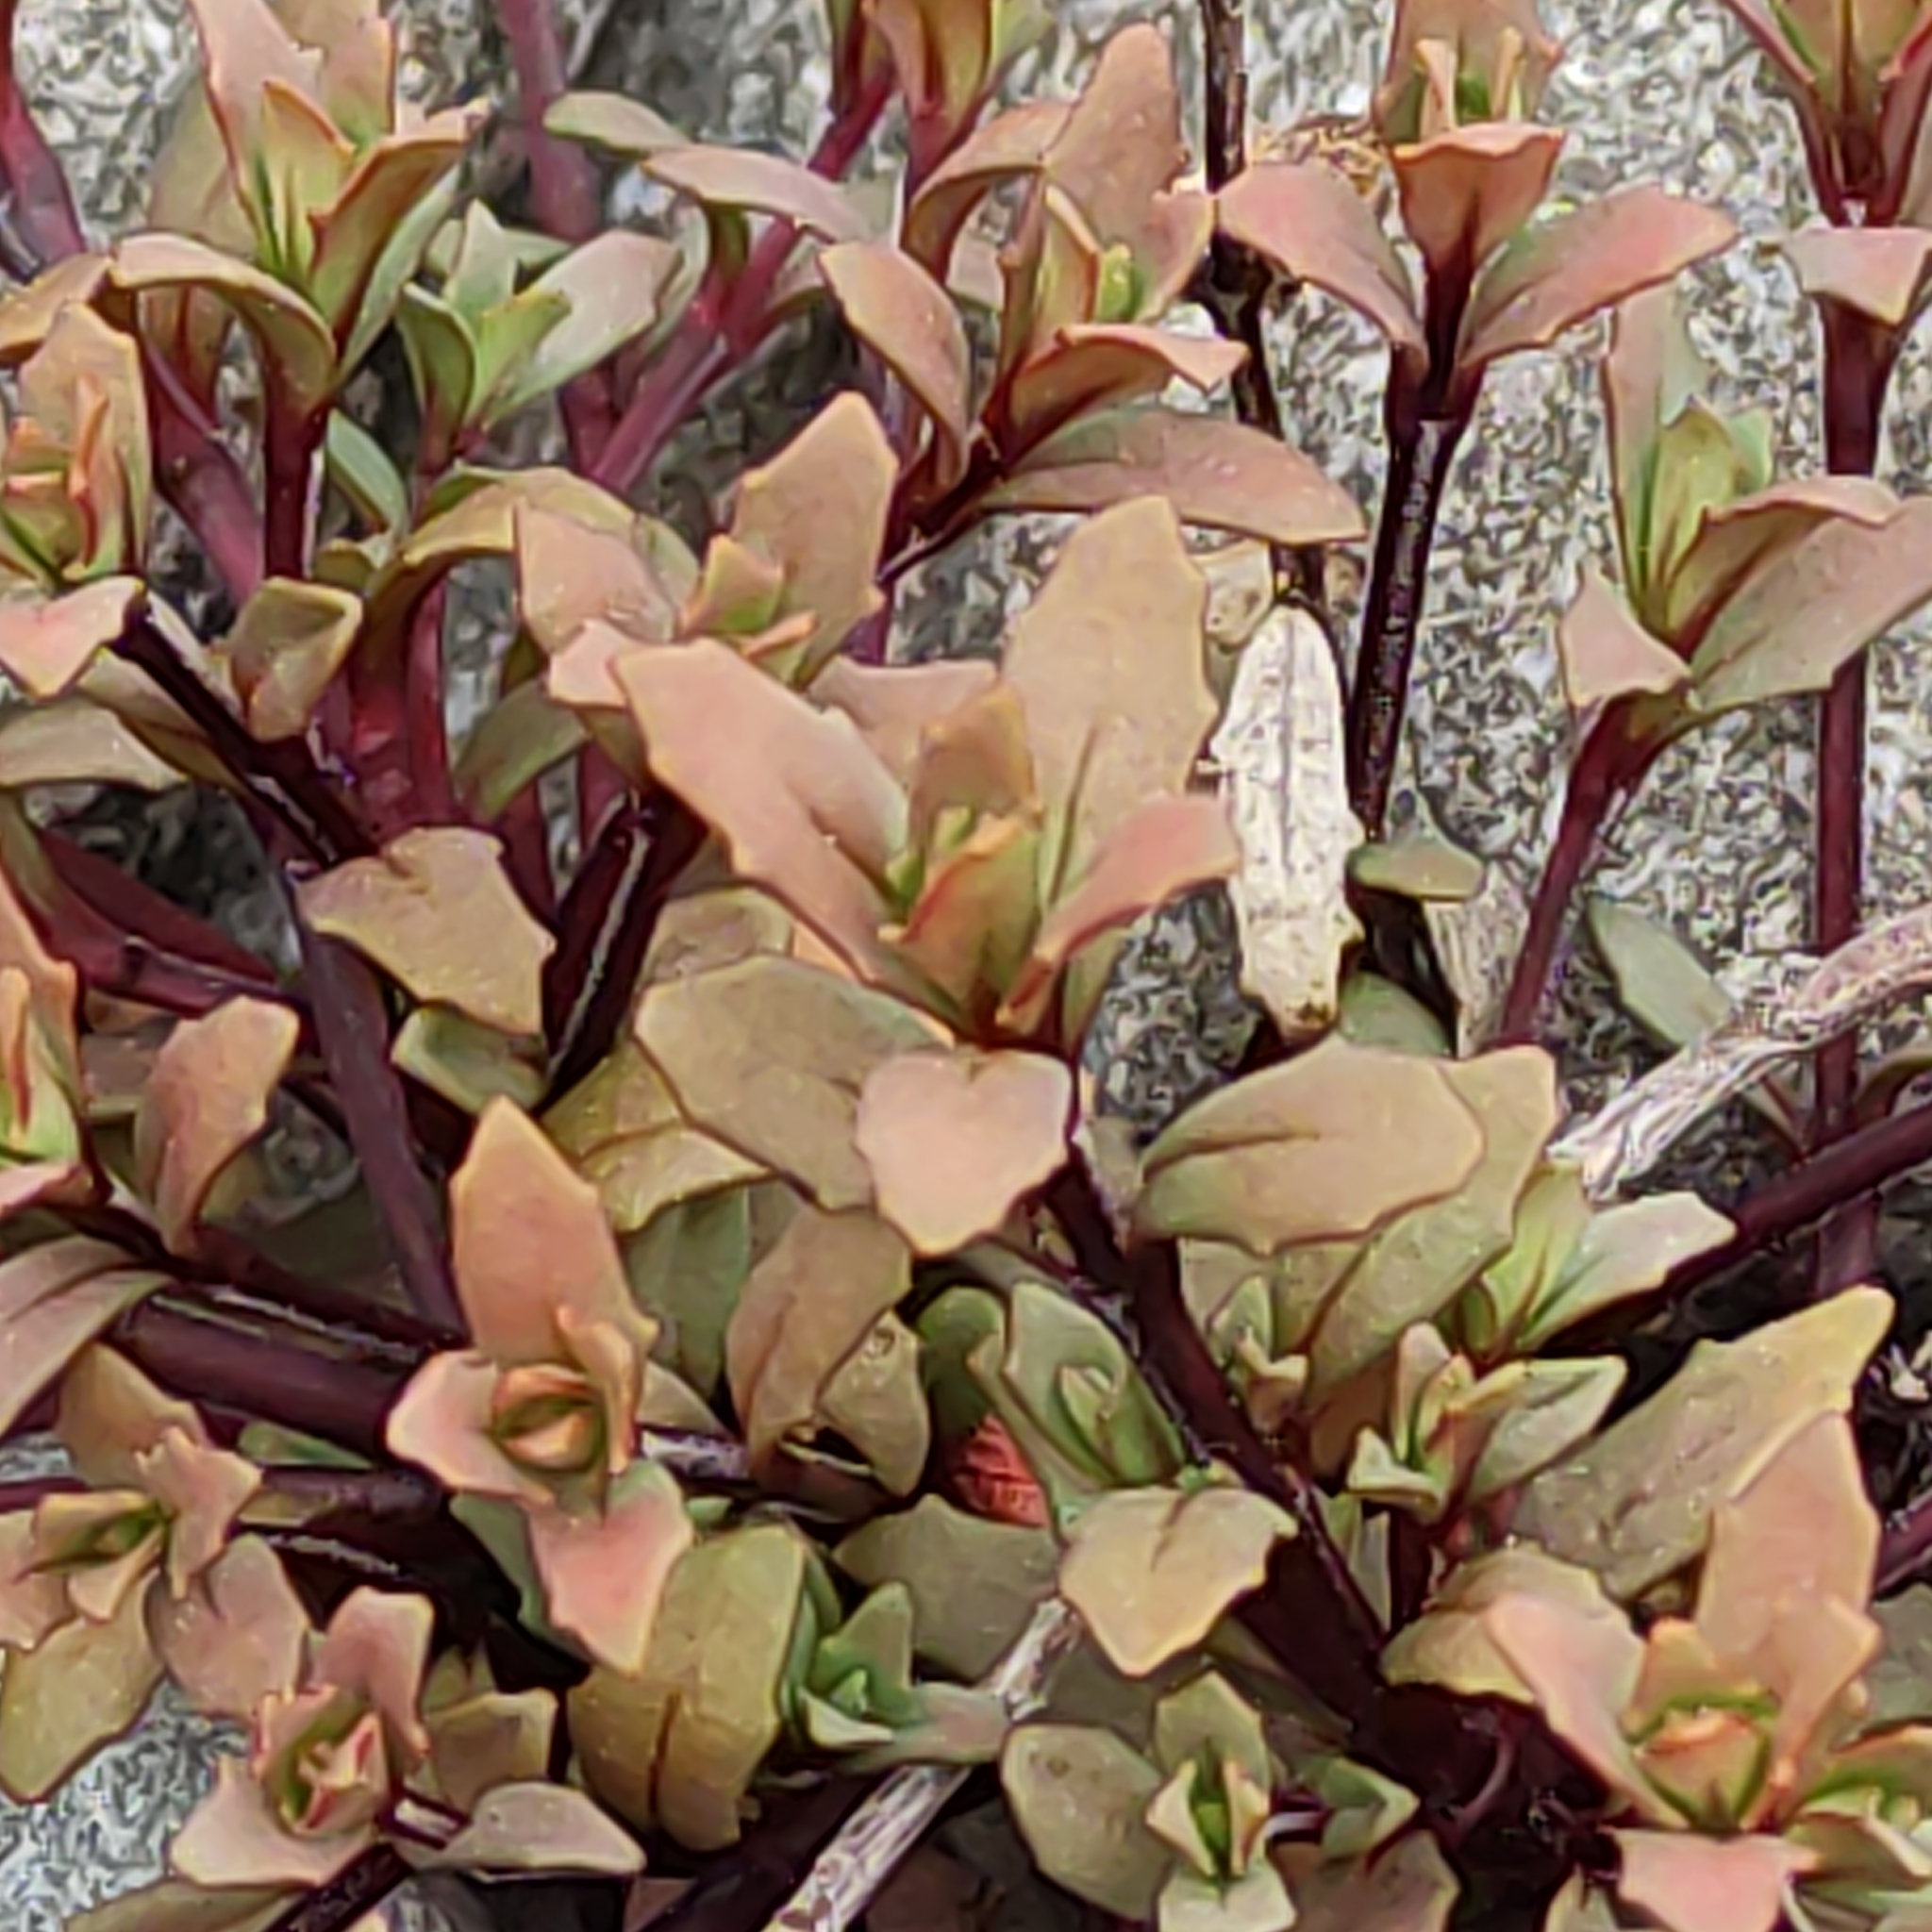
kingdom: Plantae
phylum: Tracheophyta
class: Magnoliopsida
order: Myrtales
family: Onagraceae
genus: Epilobium
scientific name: Epilobium melanocaulon
